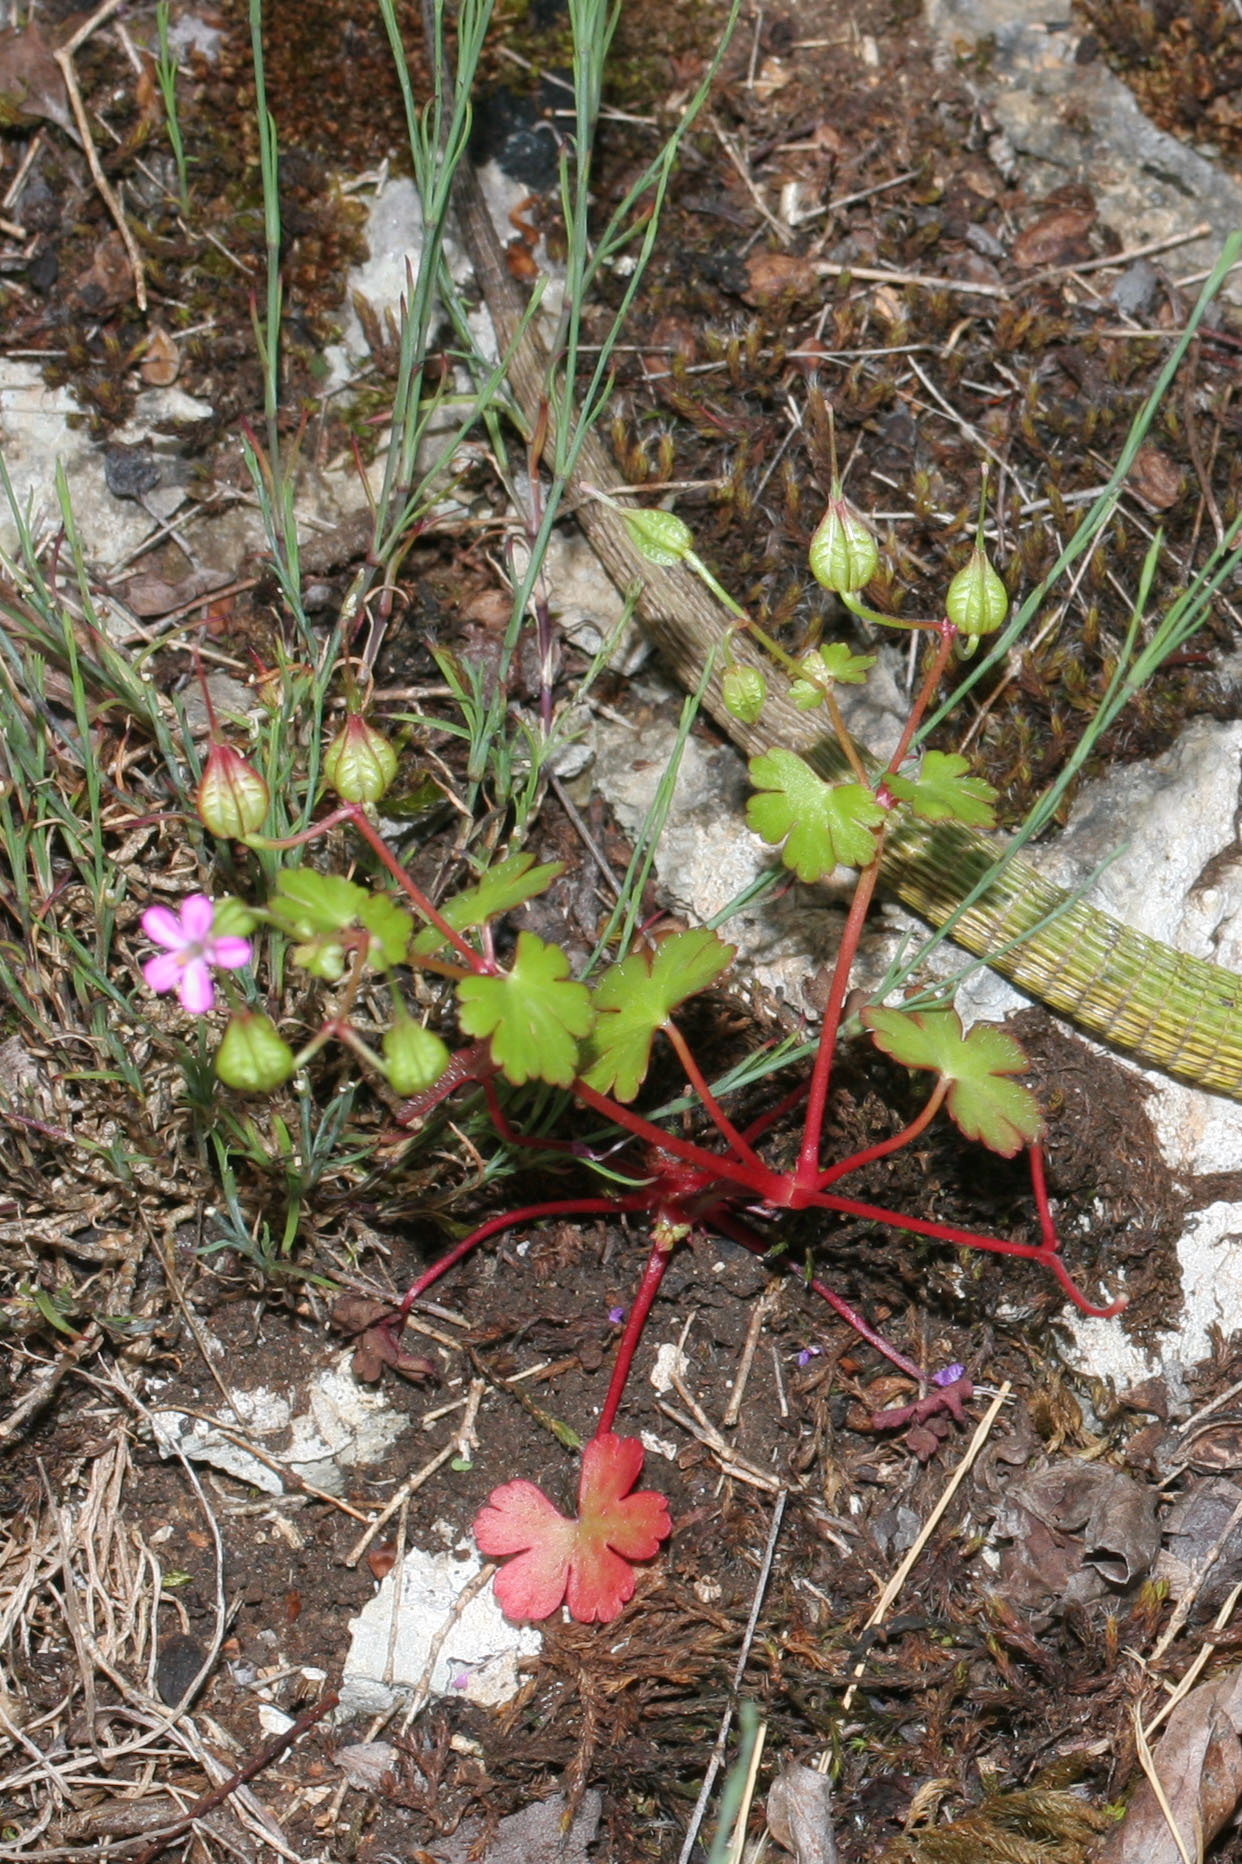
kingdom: Plantae
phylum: Tracheophyta
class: Magnoliopsida
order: Geraniales
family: Geraniaceae
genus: Geranium
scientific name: Geranium lucidum
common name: Shining crane's-bill
